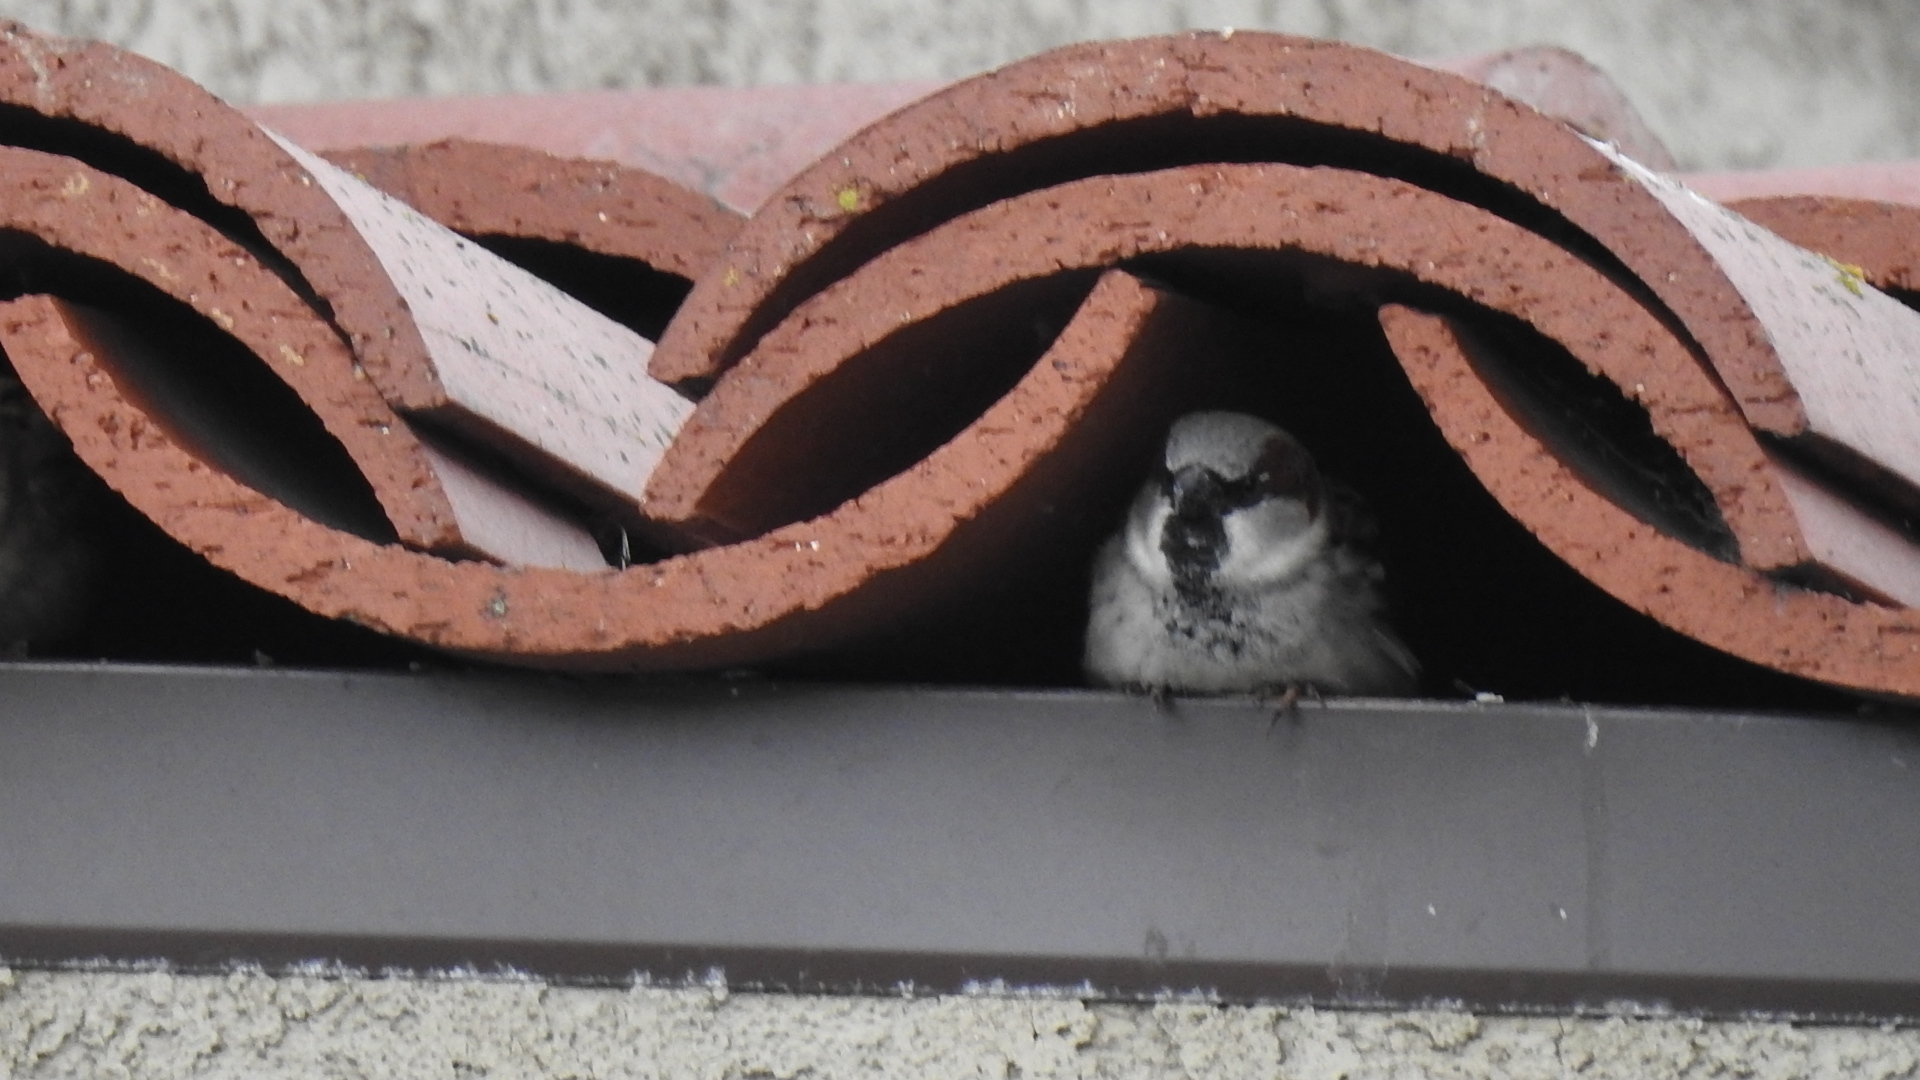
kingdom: Animalia
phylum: Chordata
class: Aves
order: Passeriformes
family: Passeridae
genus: Passer
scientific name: Passer domesticus
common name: House sparrow
